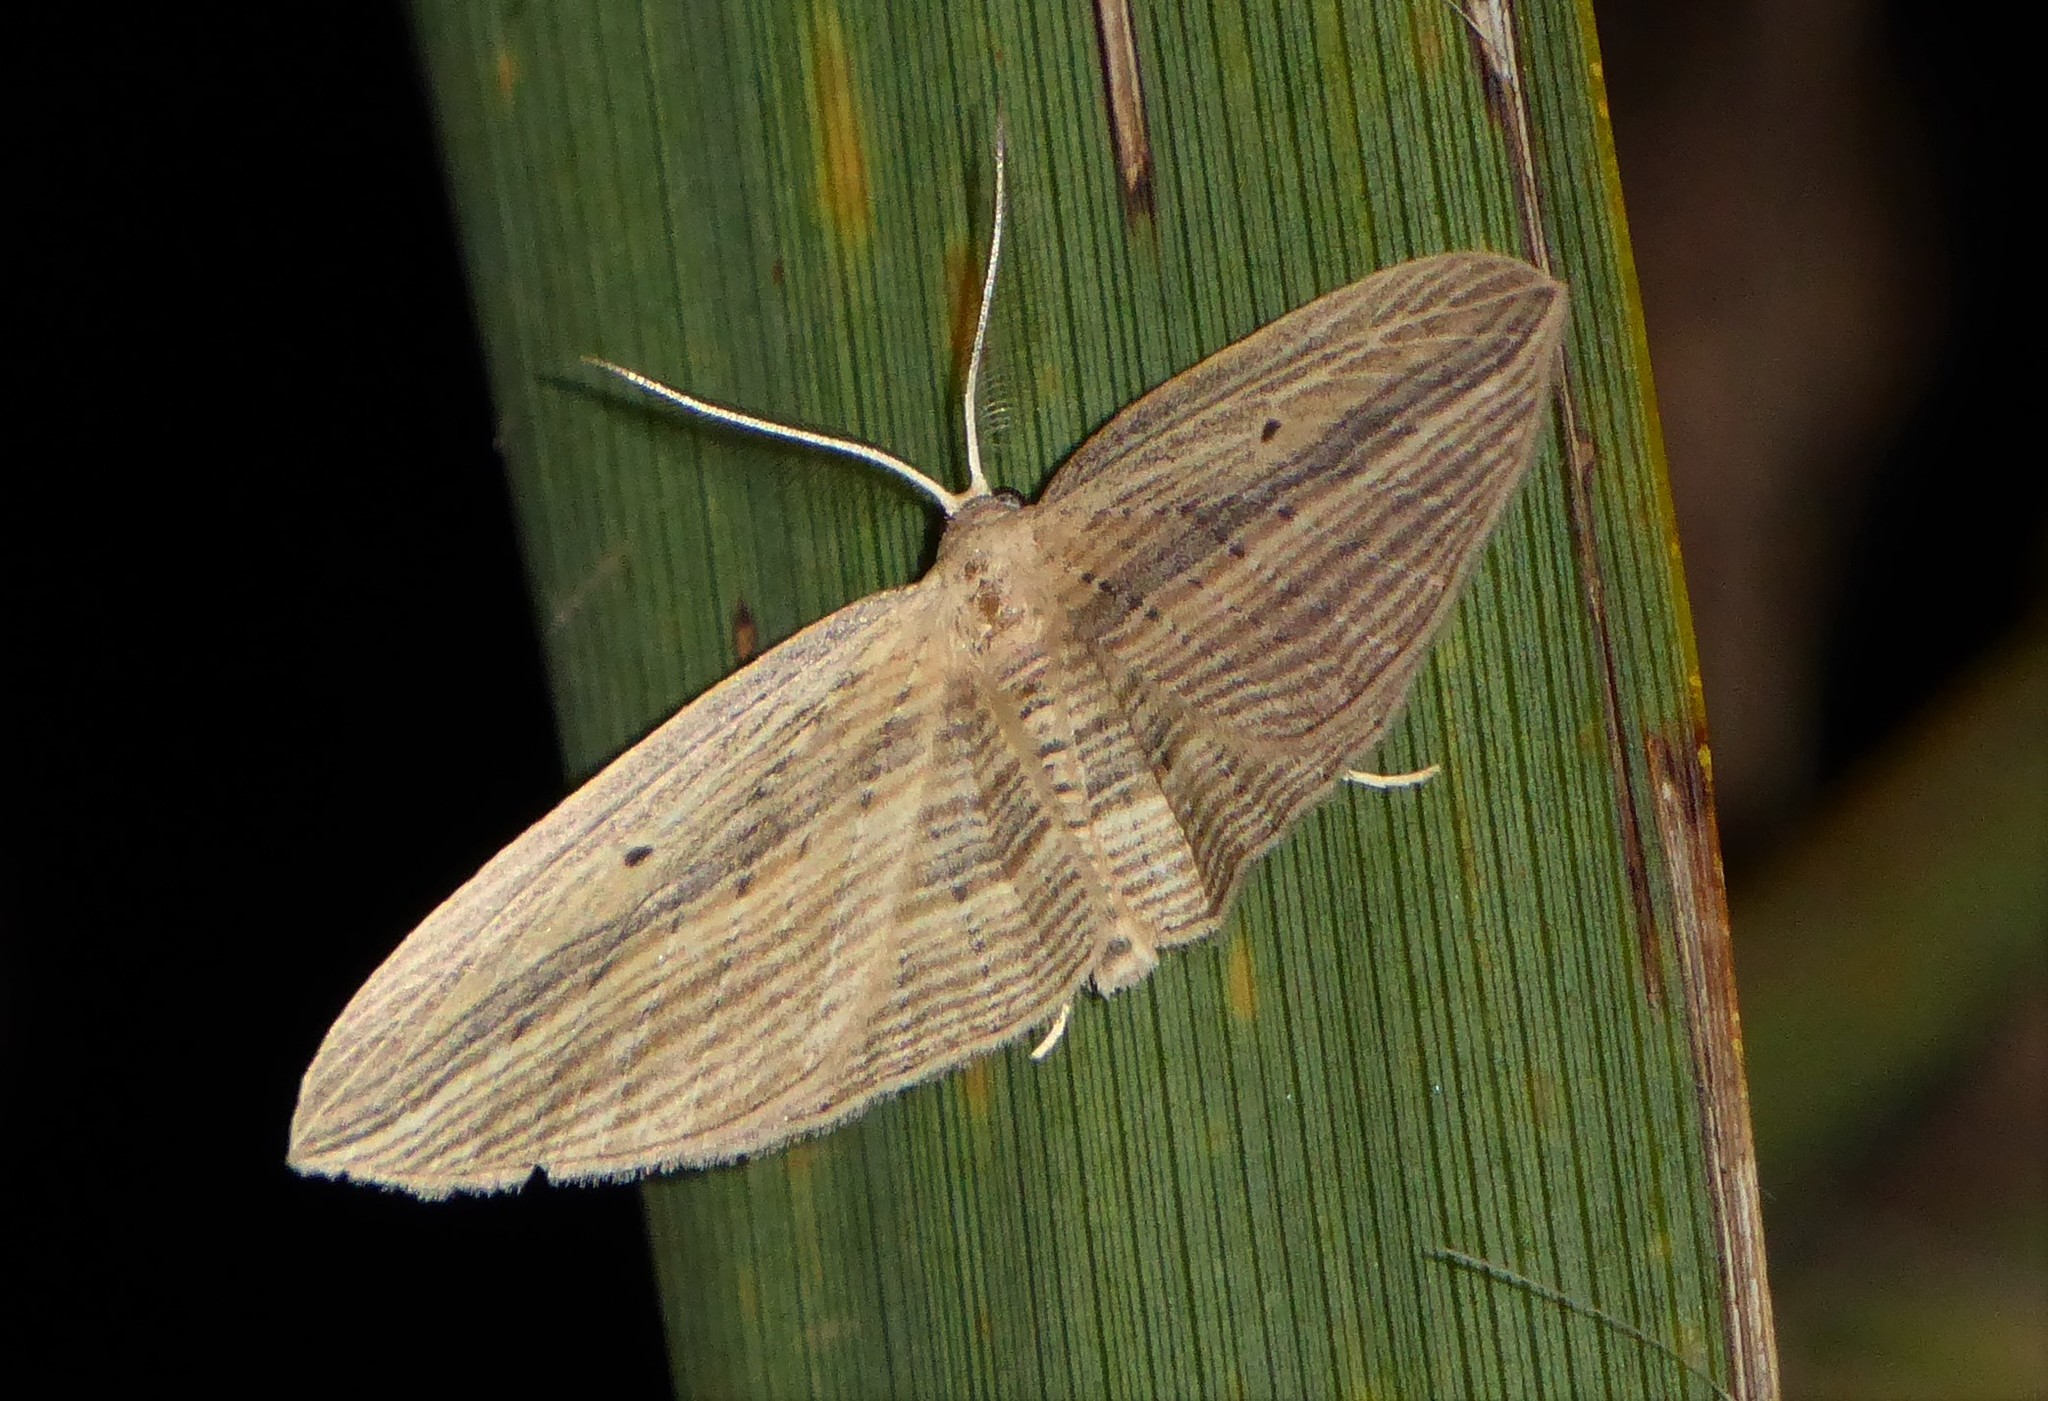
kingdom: Animalia
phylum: Arthropoda
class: Insecta
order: Lepidoptera
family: Geometridae
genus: Epiphryne
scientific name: Epiphryne verriculata
